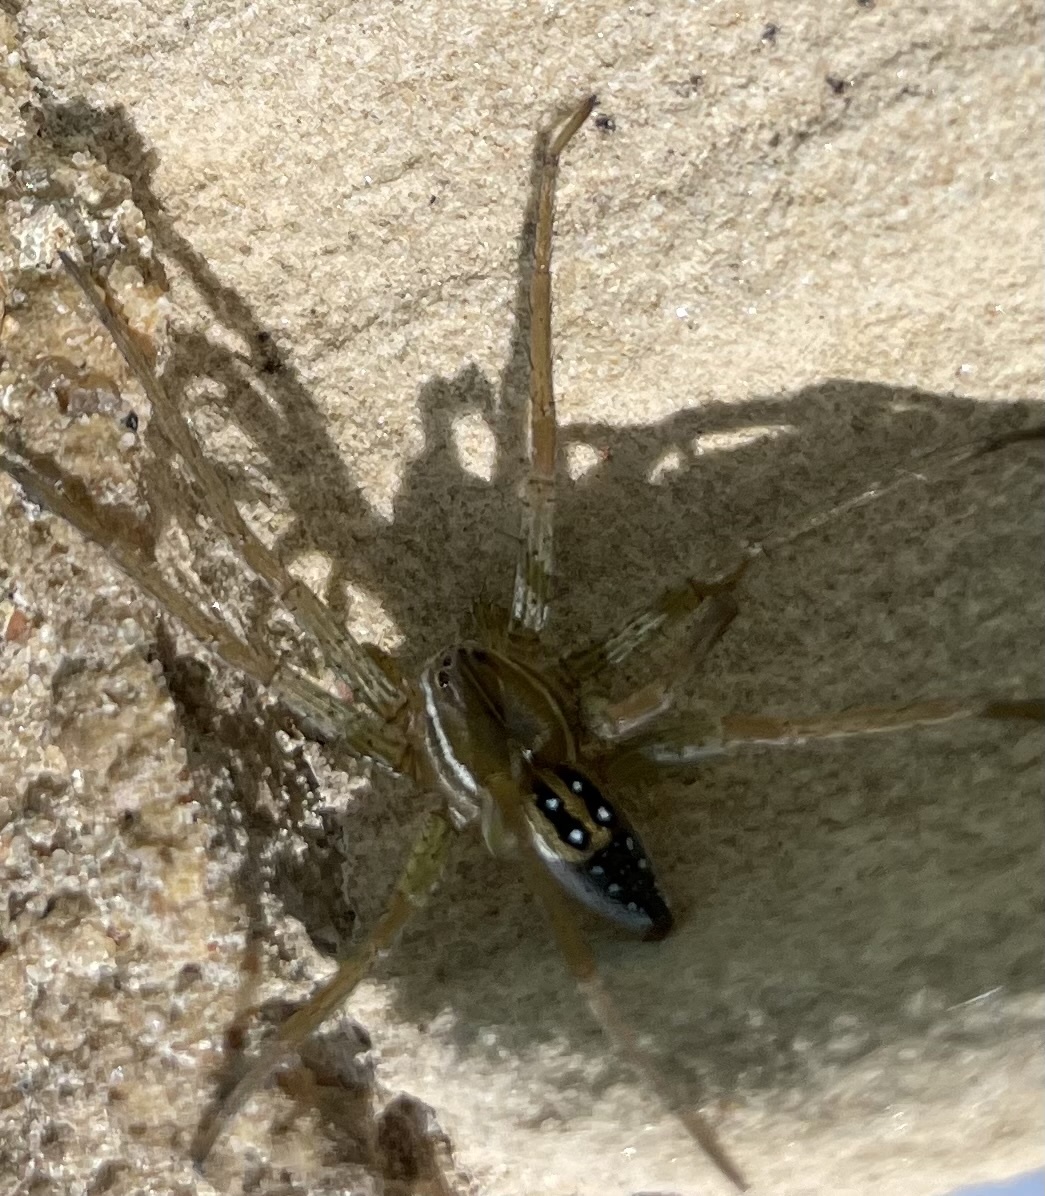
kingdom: Animalia
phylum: Arthropoda
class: Arachnida
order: Araneae
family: Pisauridae
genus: Dolomedes
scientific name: Dolomedes triton
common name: Six-spotted fishing spider
